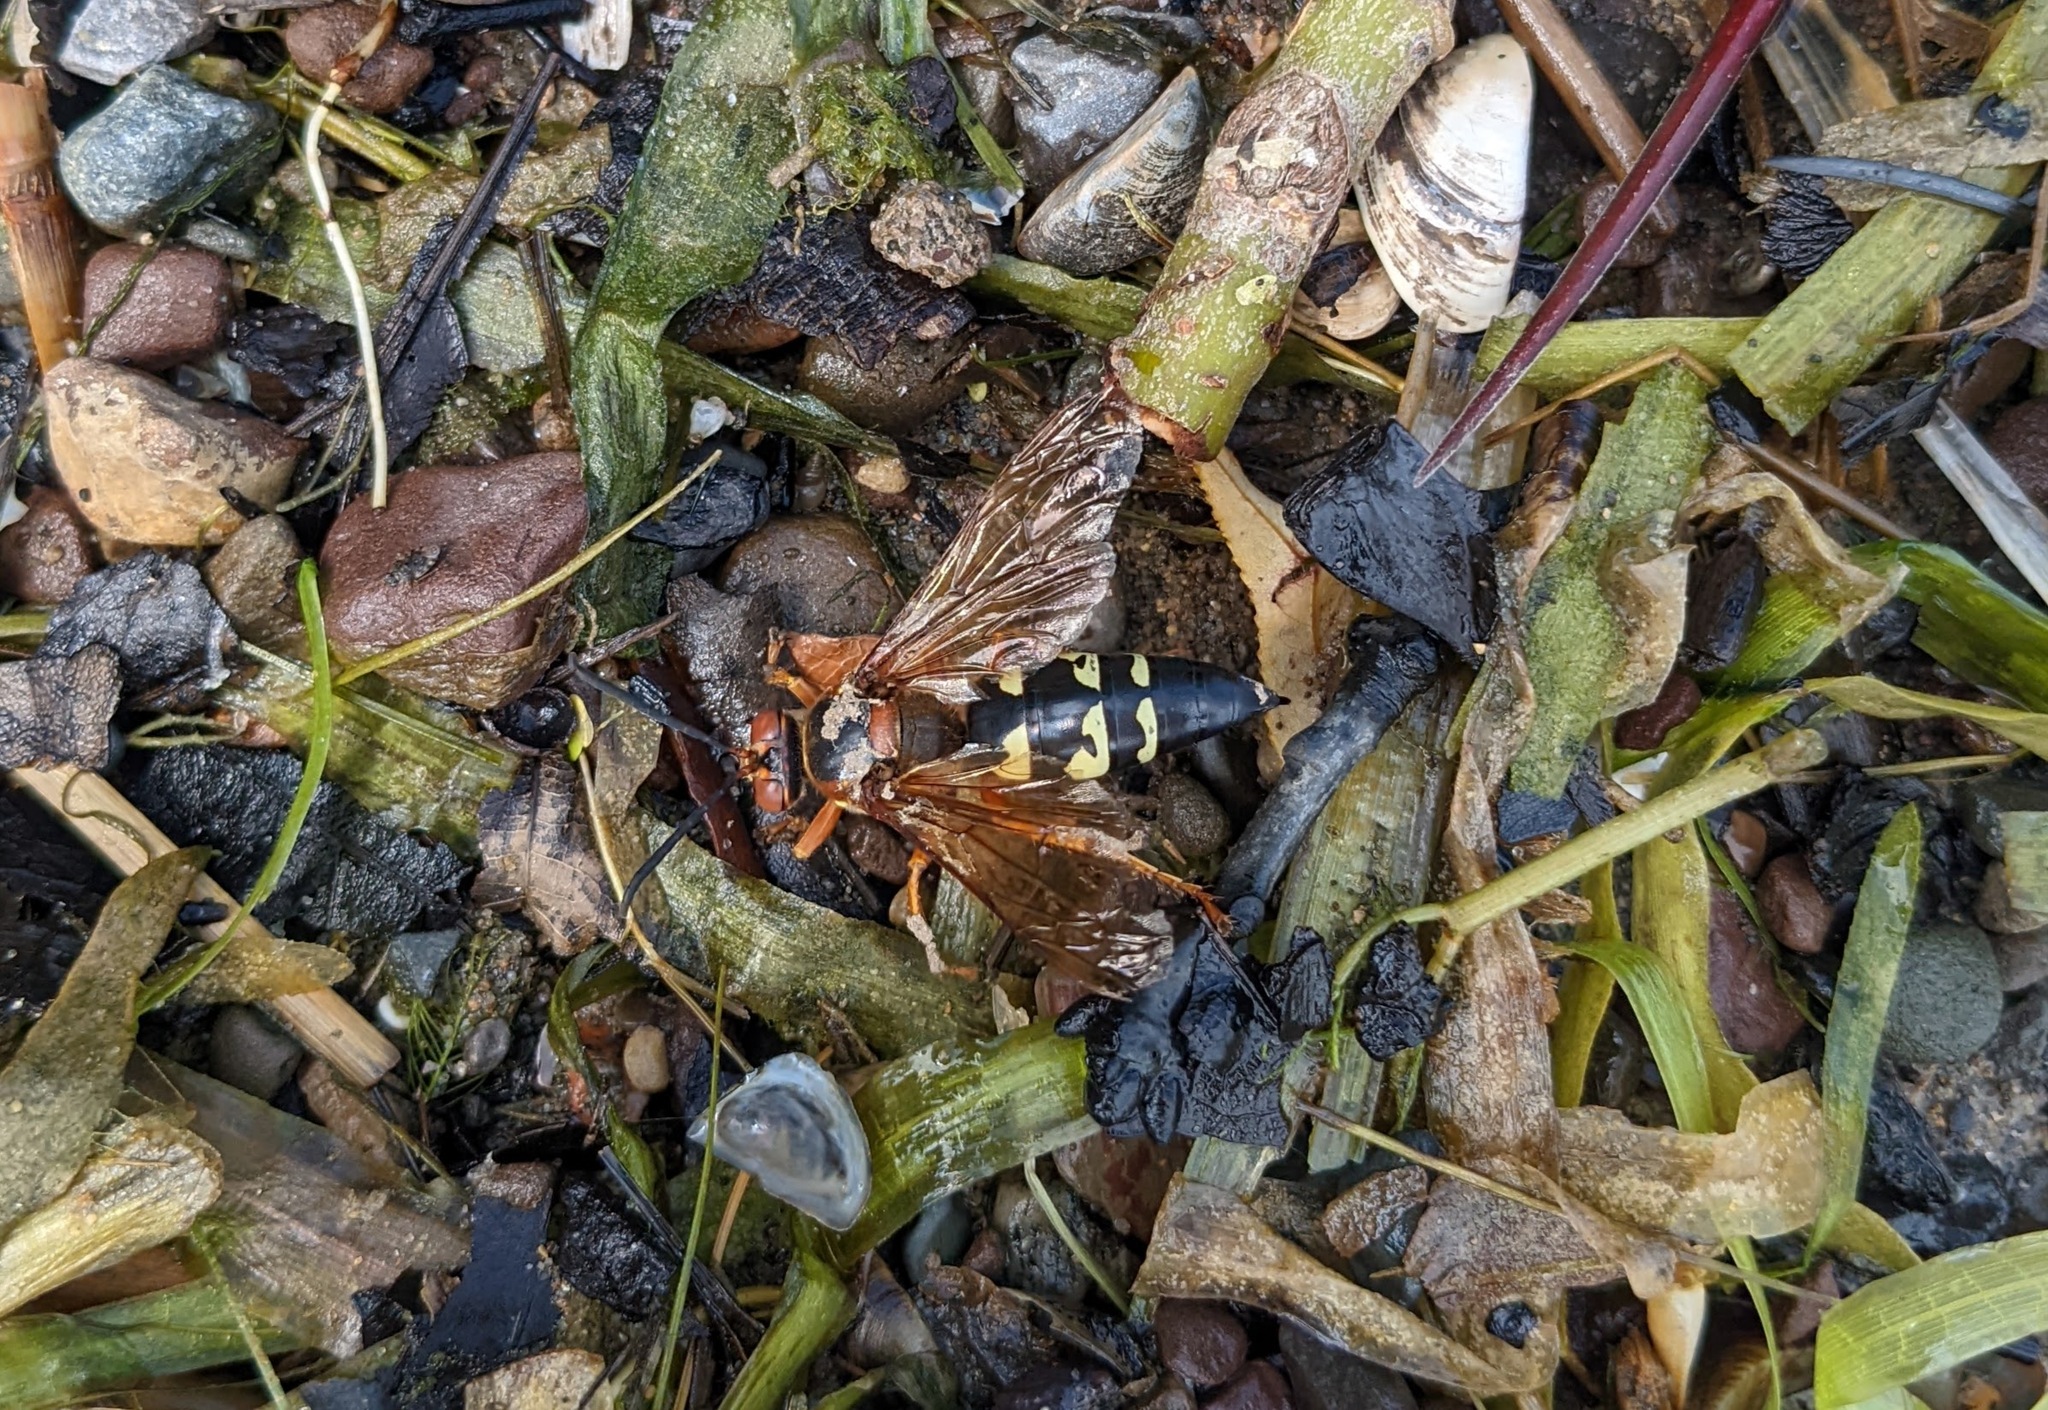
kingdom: Animalia
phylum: Arthropoda
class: Insecta
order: Hymenoptera
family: Crabronidae
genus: Sphecius
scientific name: Sphecius speciosus
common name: Cicada killer
